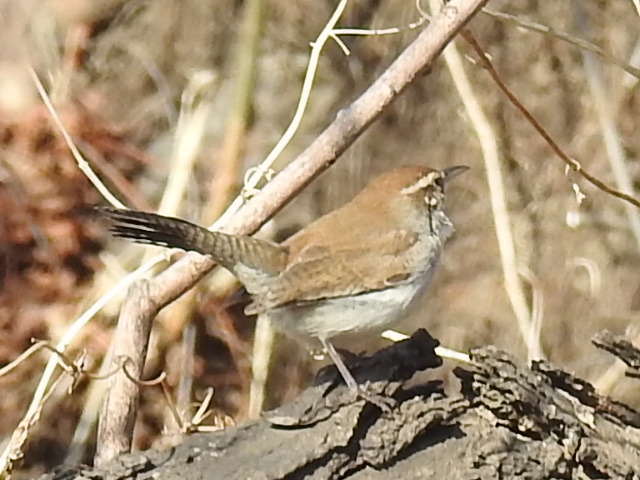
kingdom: Animalia
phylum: Chordata
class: Aves
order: Passeriformes
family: Troglodytidae
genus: Thryomanes
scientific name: Thryomanes bewickii
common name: Bewick's wren
